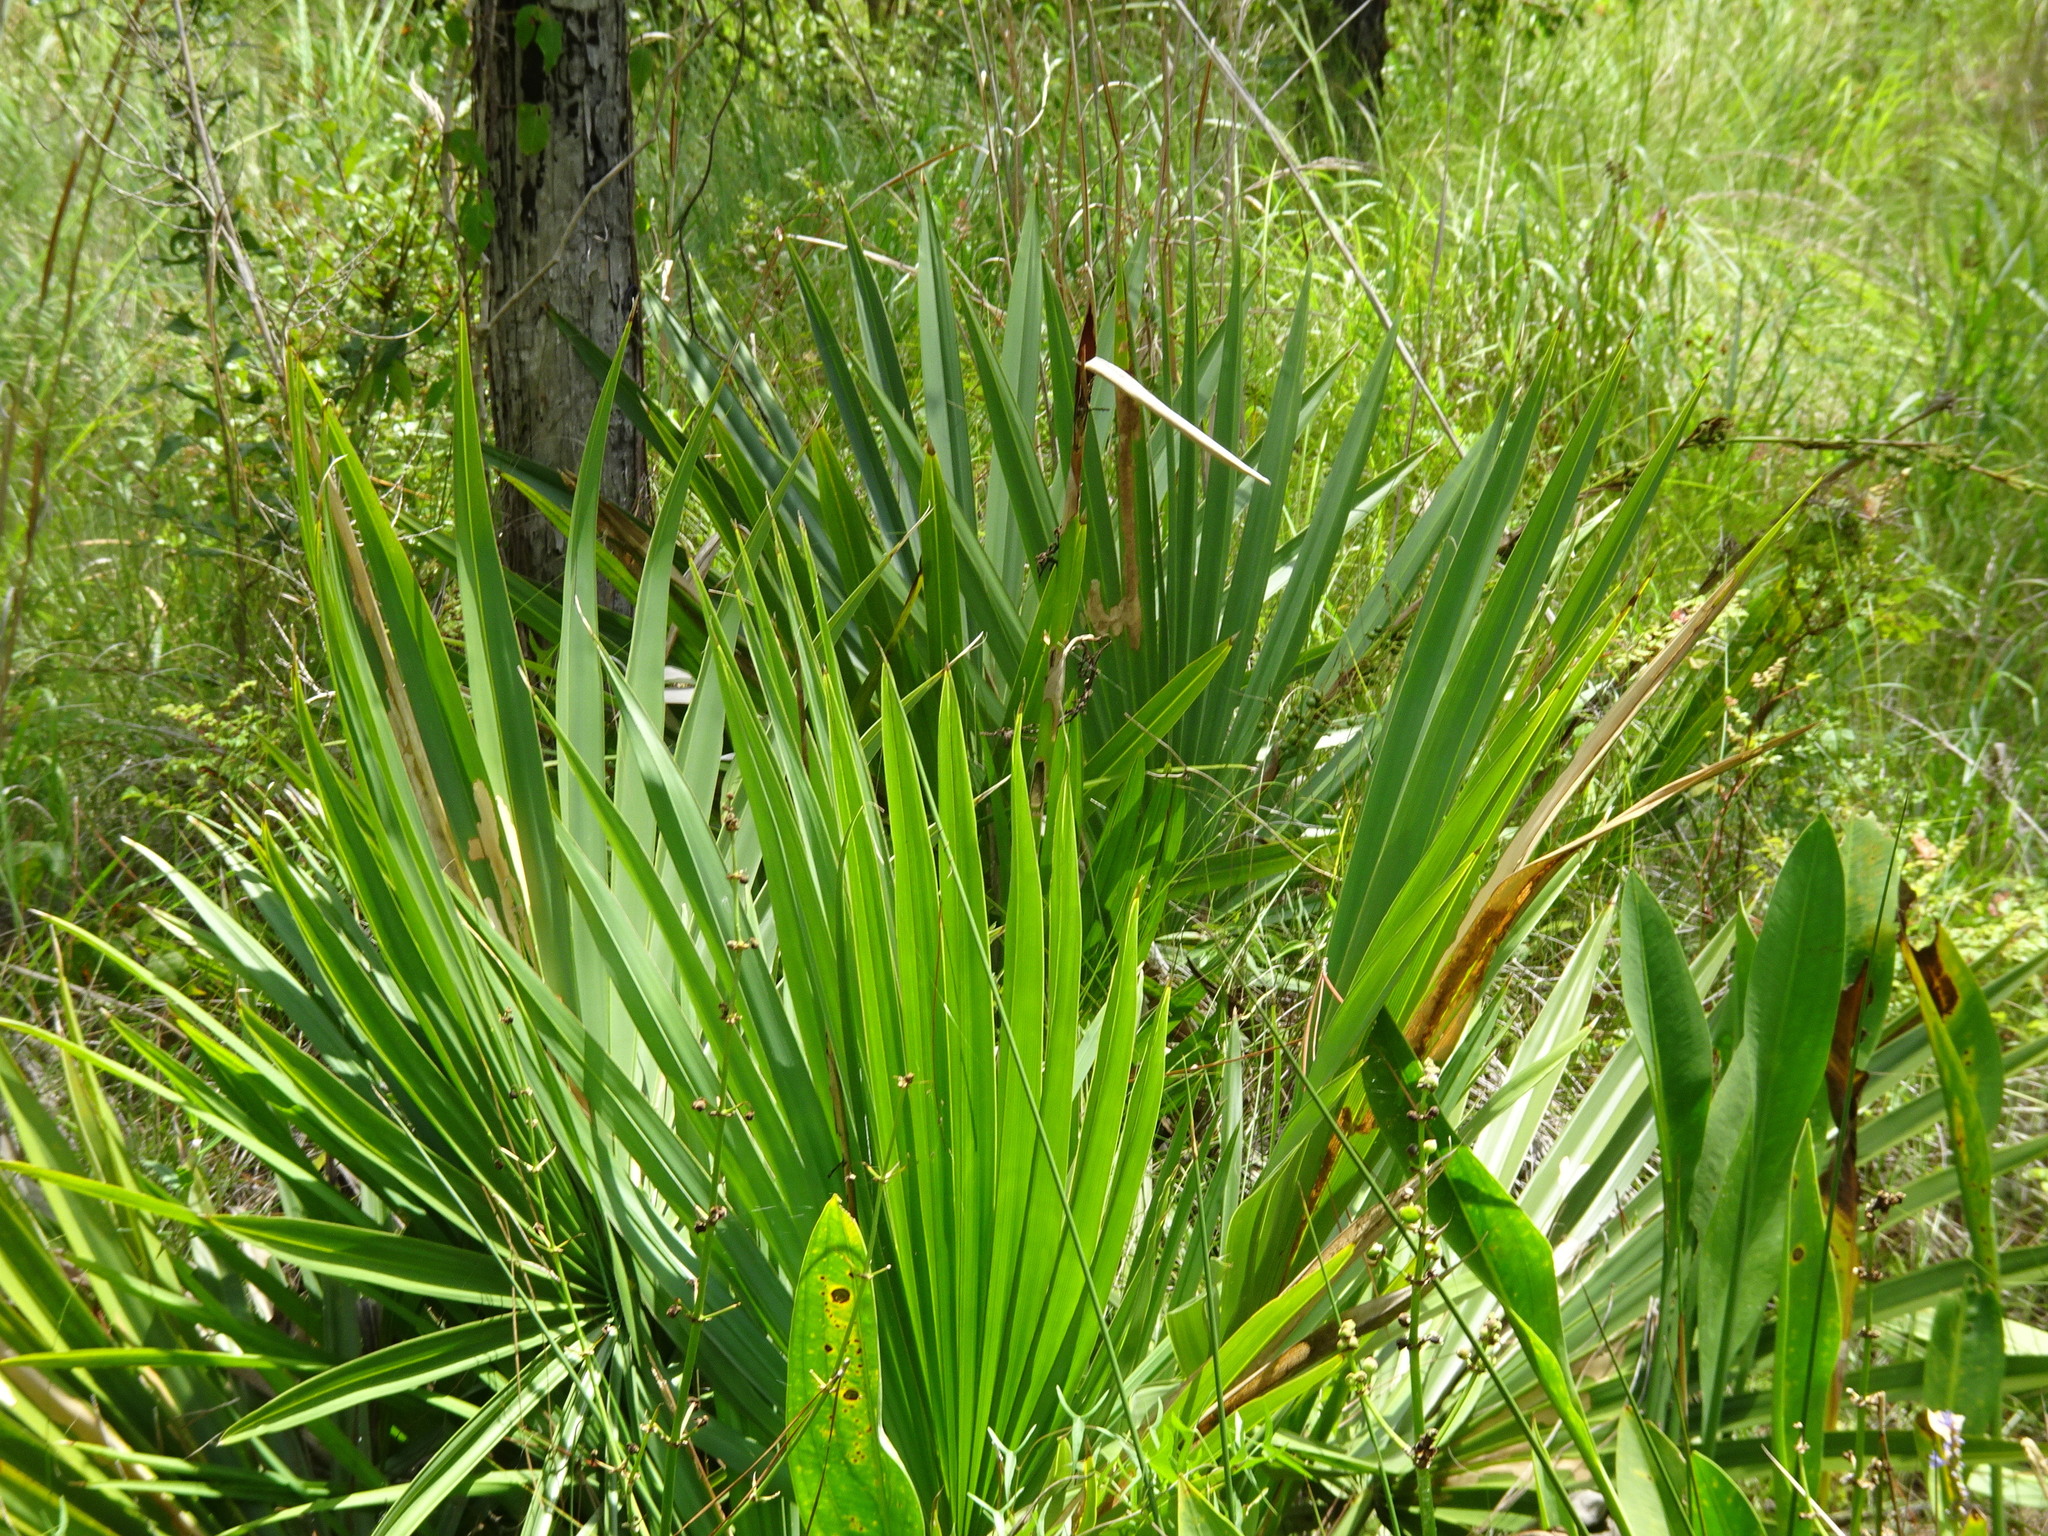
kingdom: Plantae
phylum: Tracheophyta
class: Liliopsida
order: Arecales
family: Arecaceae
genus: Sabal
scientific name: Sabal minor
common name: Dwarf palmetto
